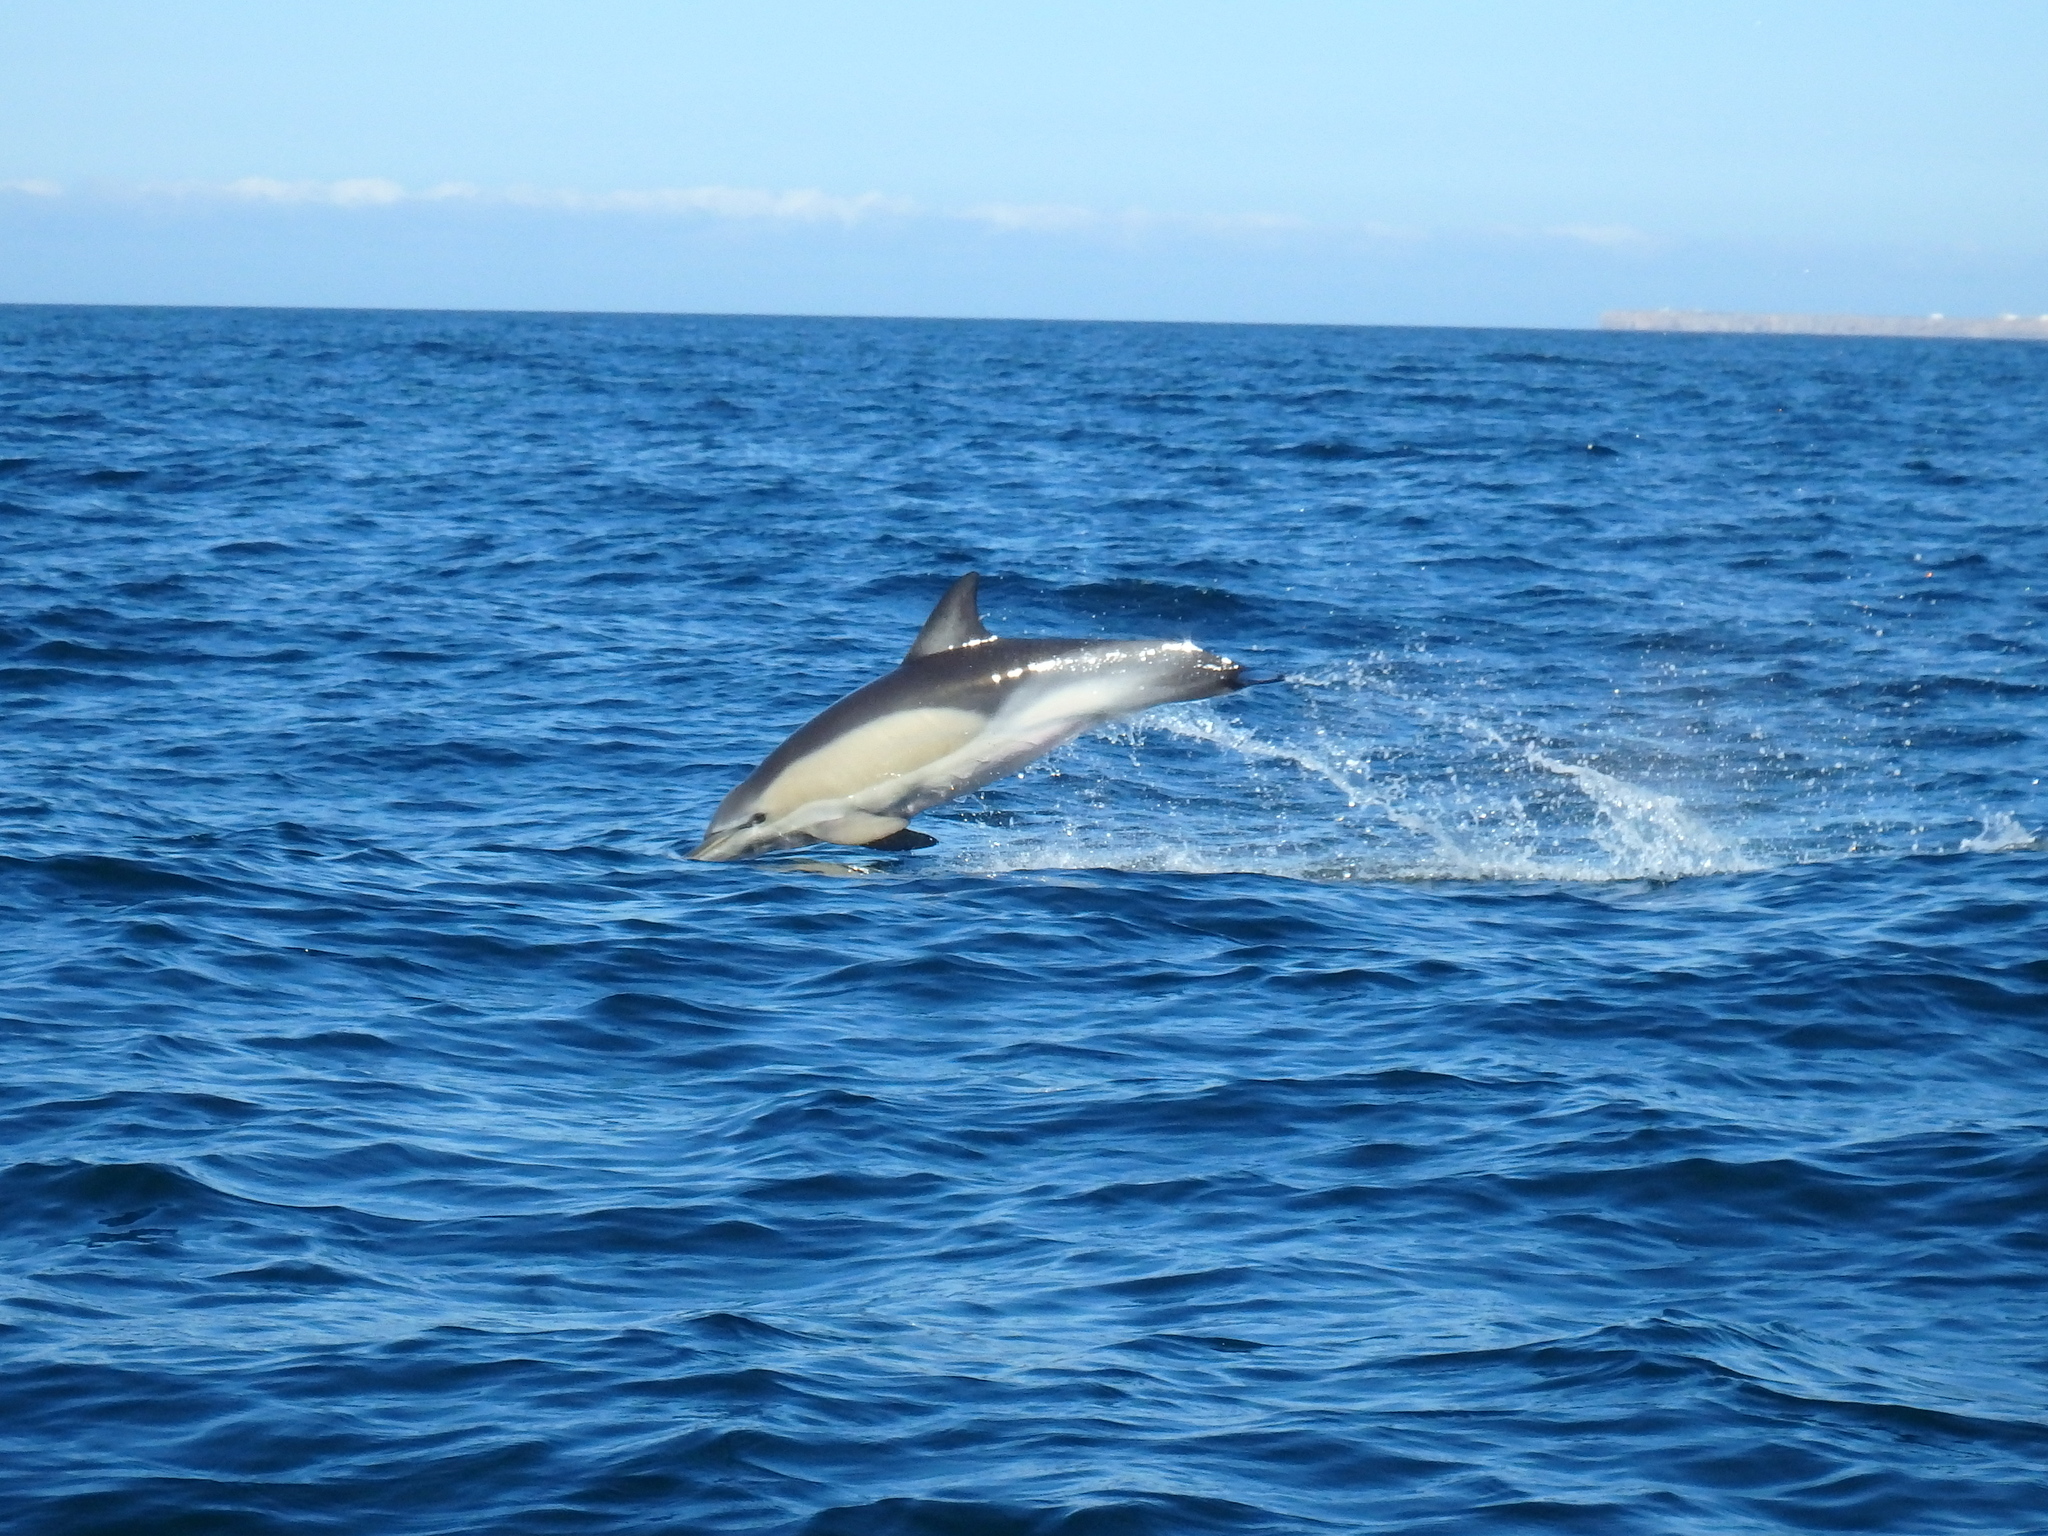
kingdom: Animalia
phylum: Chordata
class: Mammalia
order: Cetacea
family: Delphinidae
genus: Delphinus
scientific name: Delphinus delphis
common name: Common dolphin
